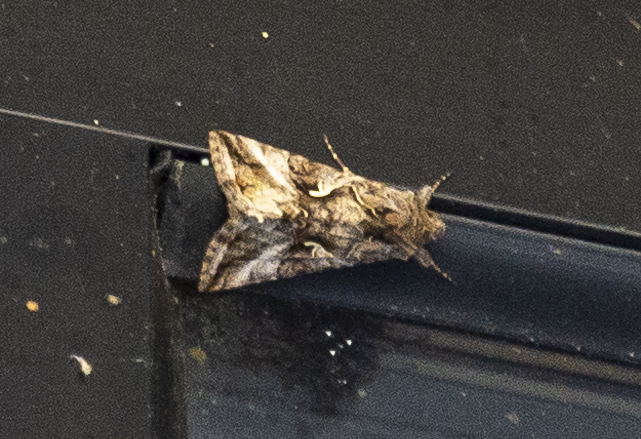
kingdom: Animalia
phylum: Arthropoda
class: Insecta
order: Lepidoptera
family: Noctuidae
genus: Autographa
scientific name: Autographa gamma
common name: Silver y
